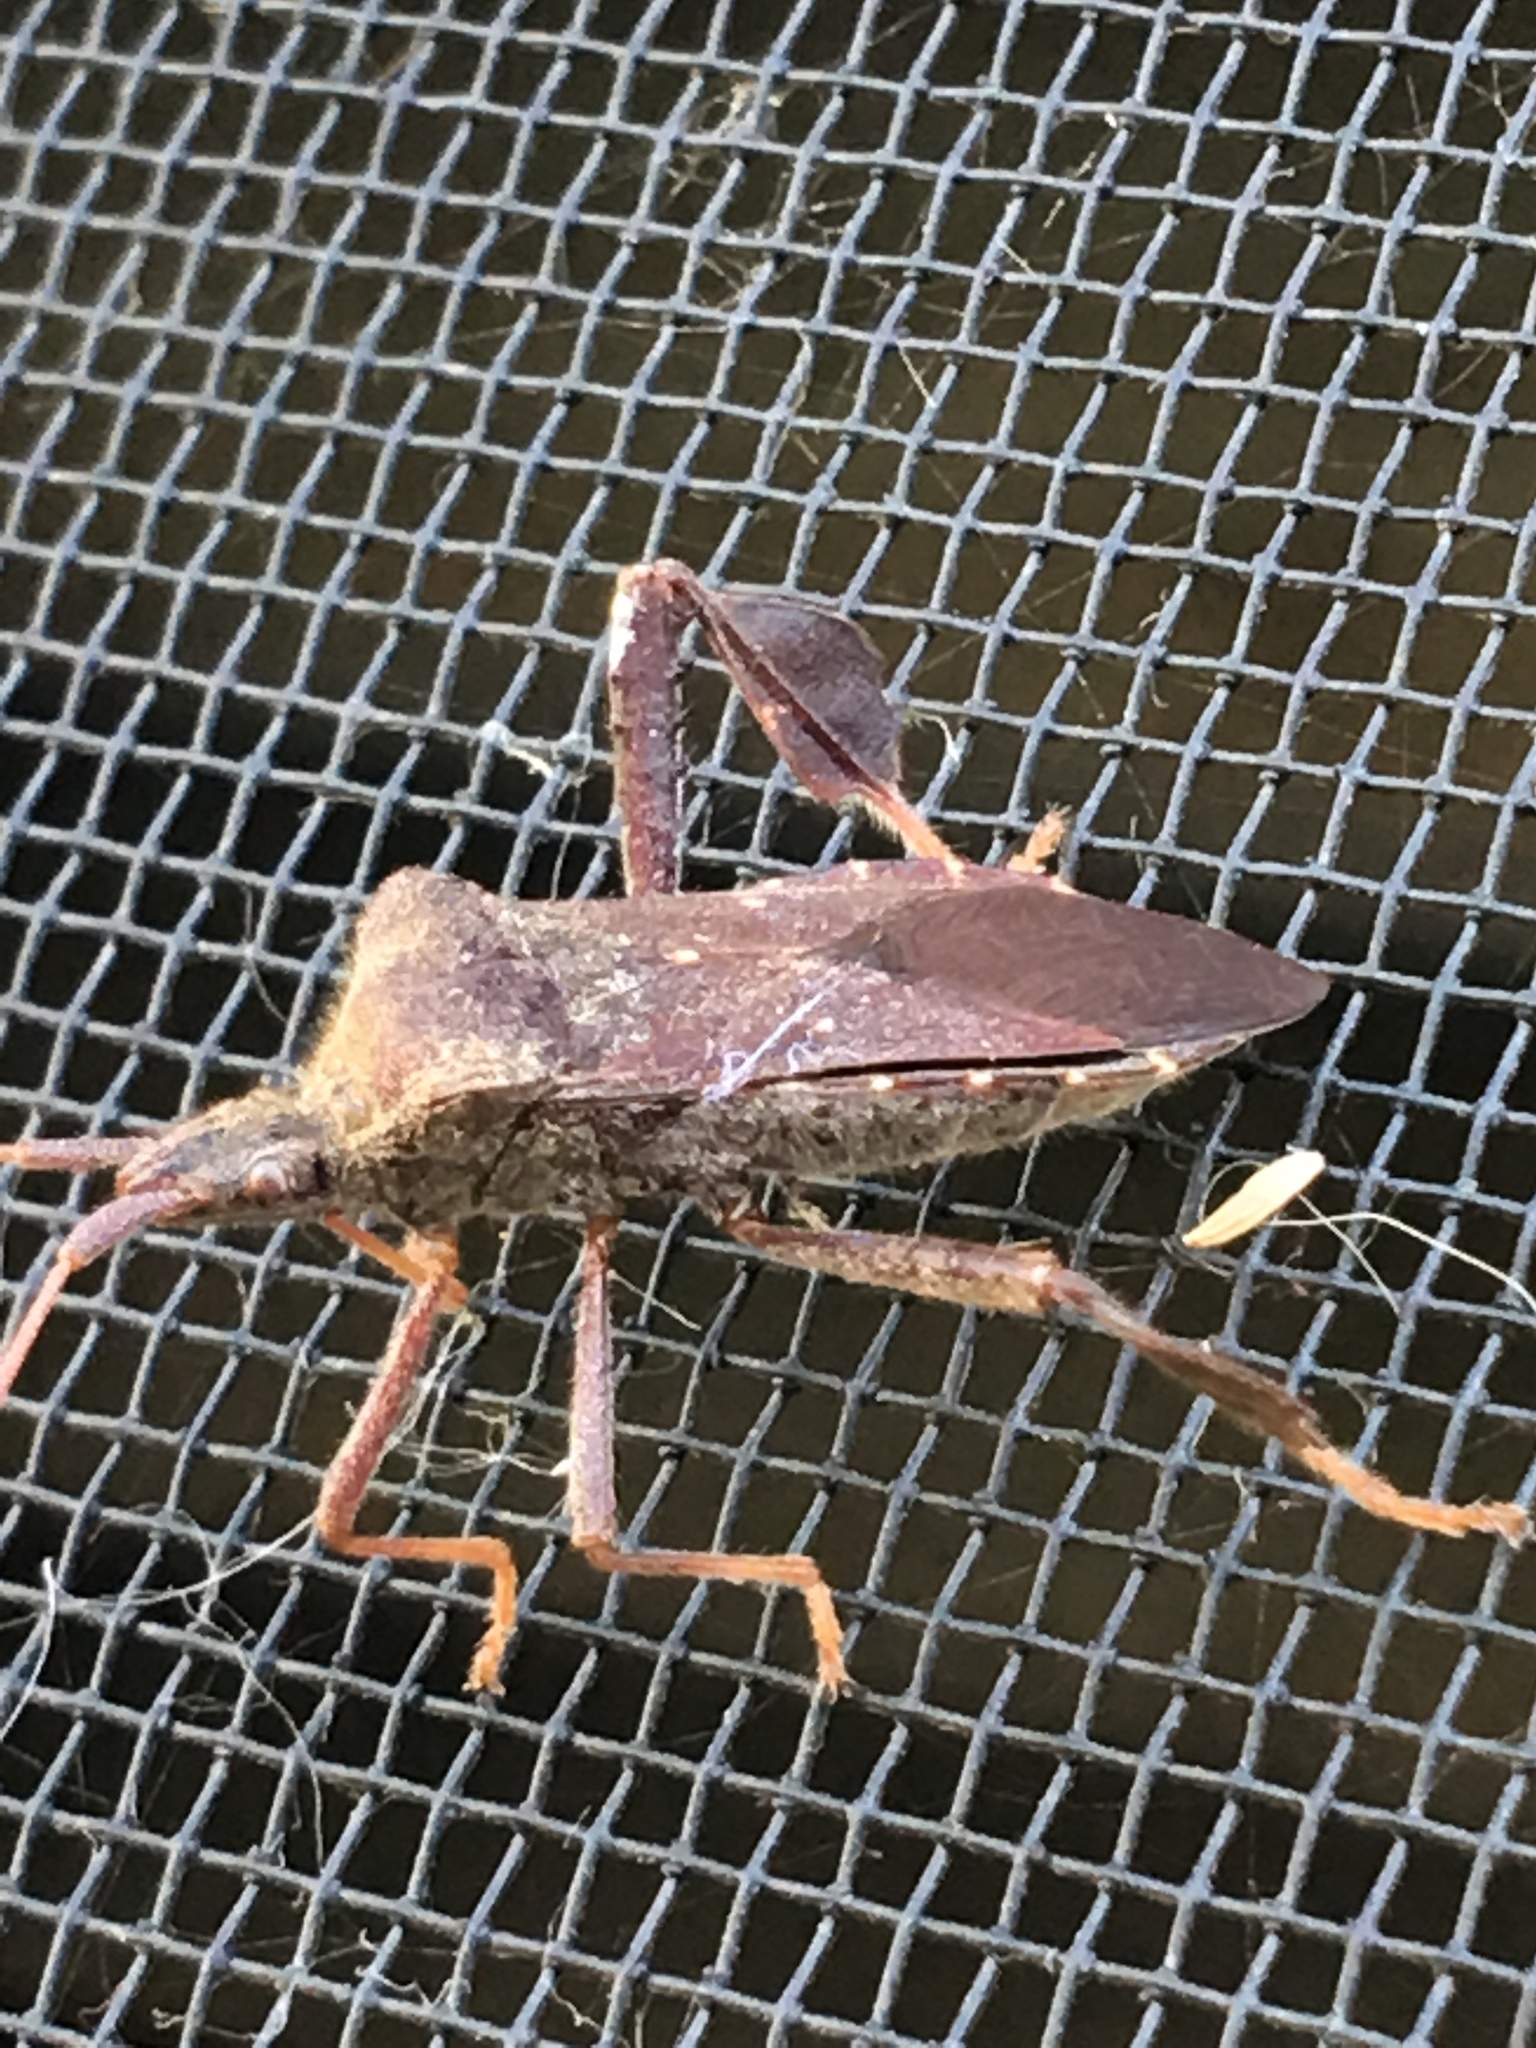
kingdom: Animalia
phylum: Arthropoda
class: Insecta
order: Hemiptera
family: Coreidae
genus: Leptoglossus
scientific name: Leptoglossus oppositus
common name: Northern leaf-footed bug
